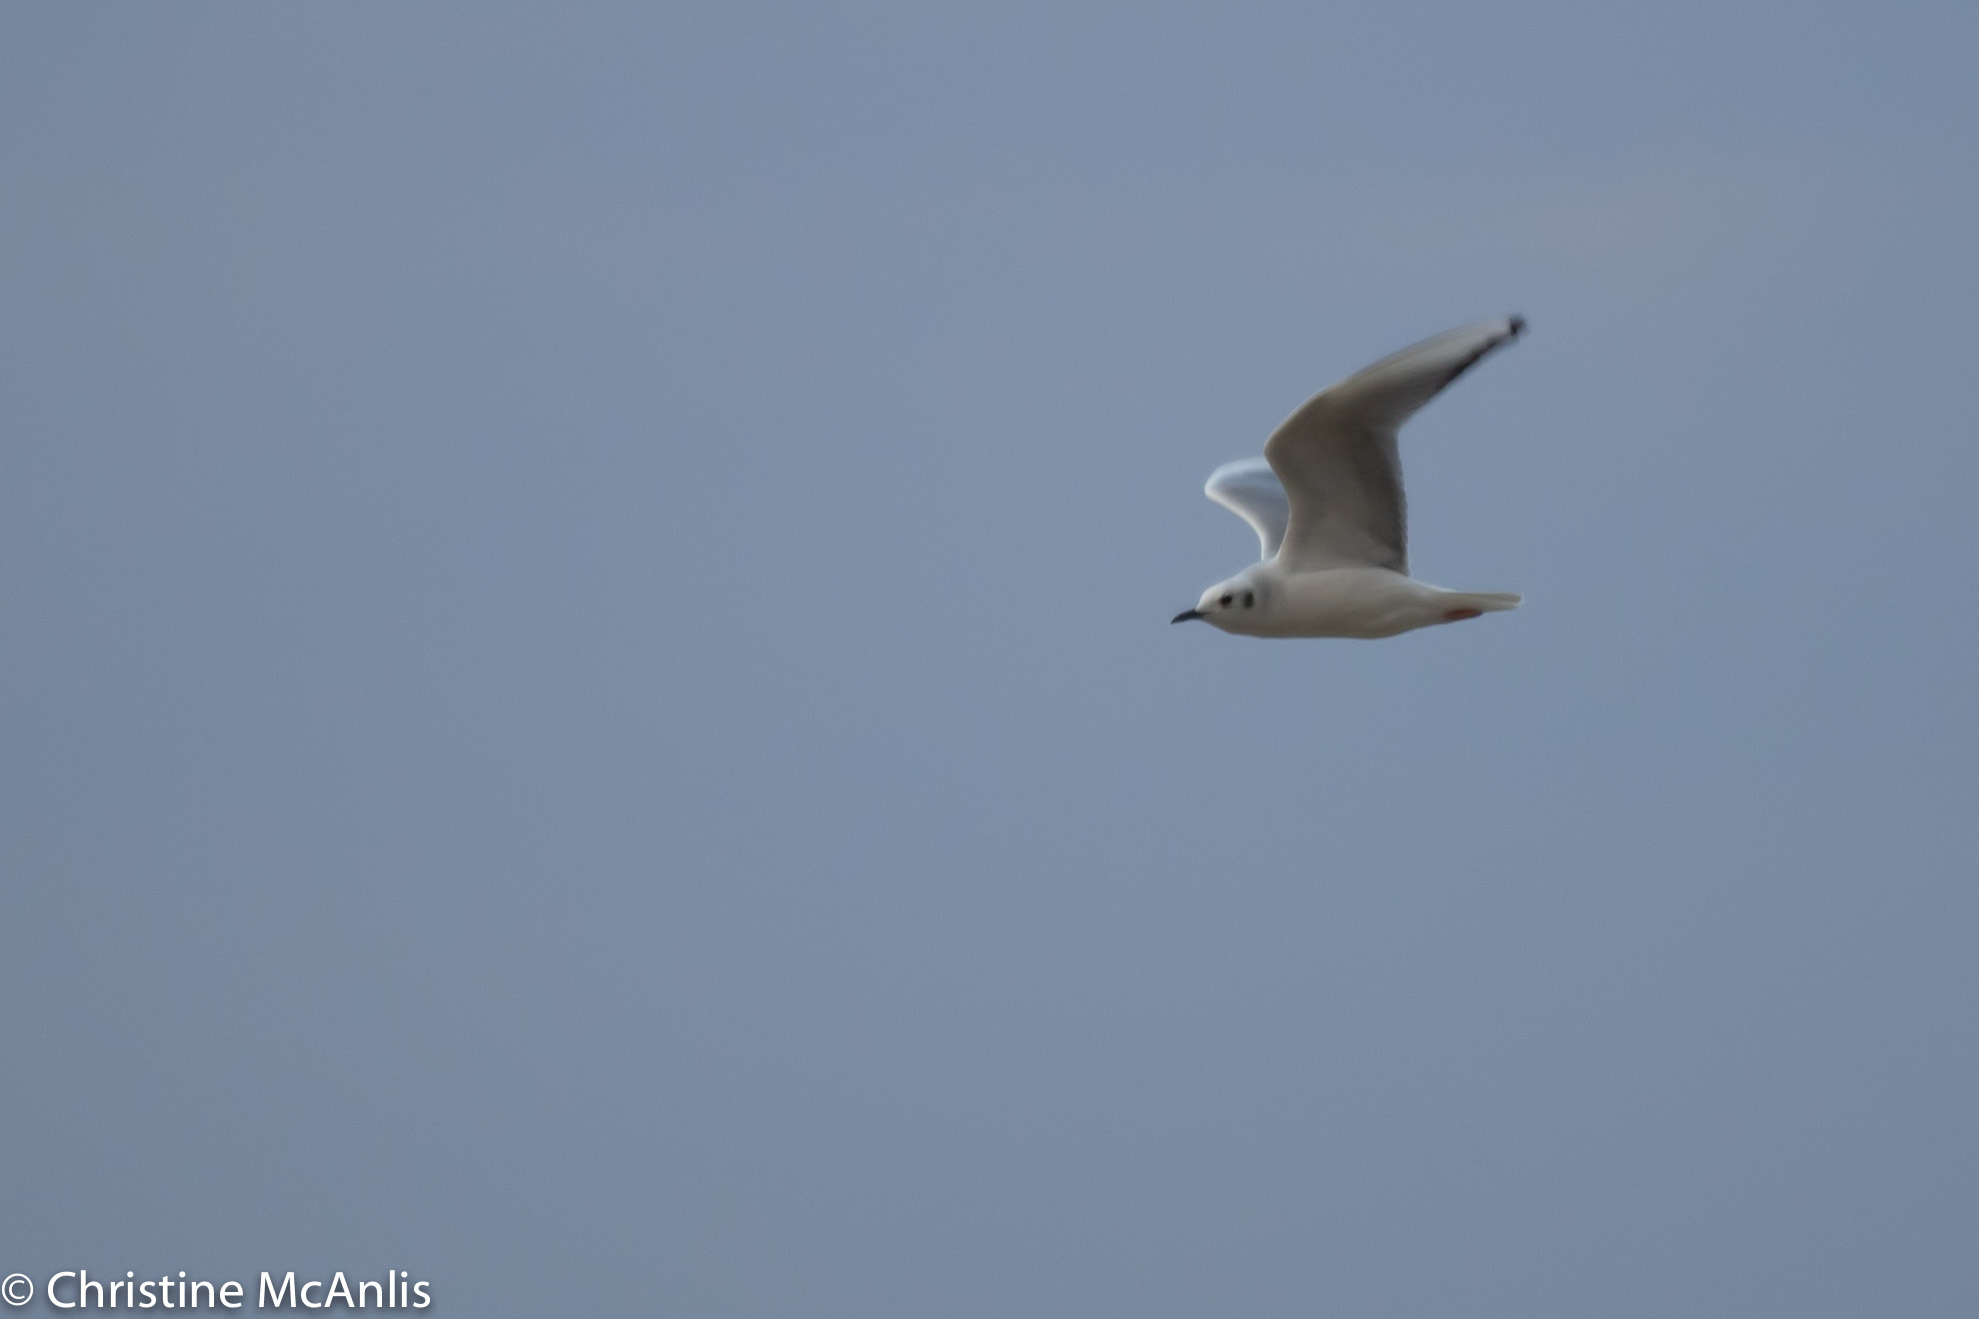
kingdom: Animalia
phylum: Chordata
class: Aves
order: Charadriiformes
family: Laridae
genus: Chroicocephalus
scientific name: Chroicocephalus philadelphia
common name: Bonaparte's gull
